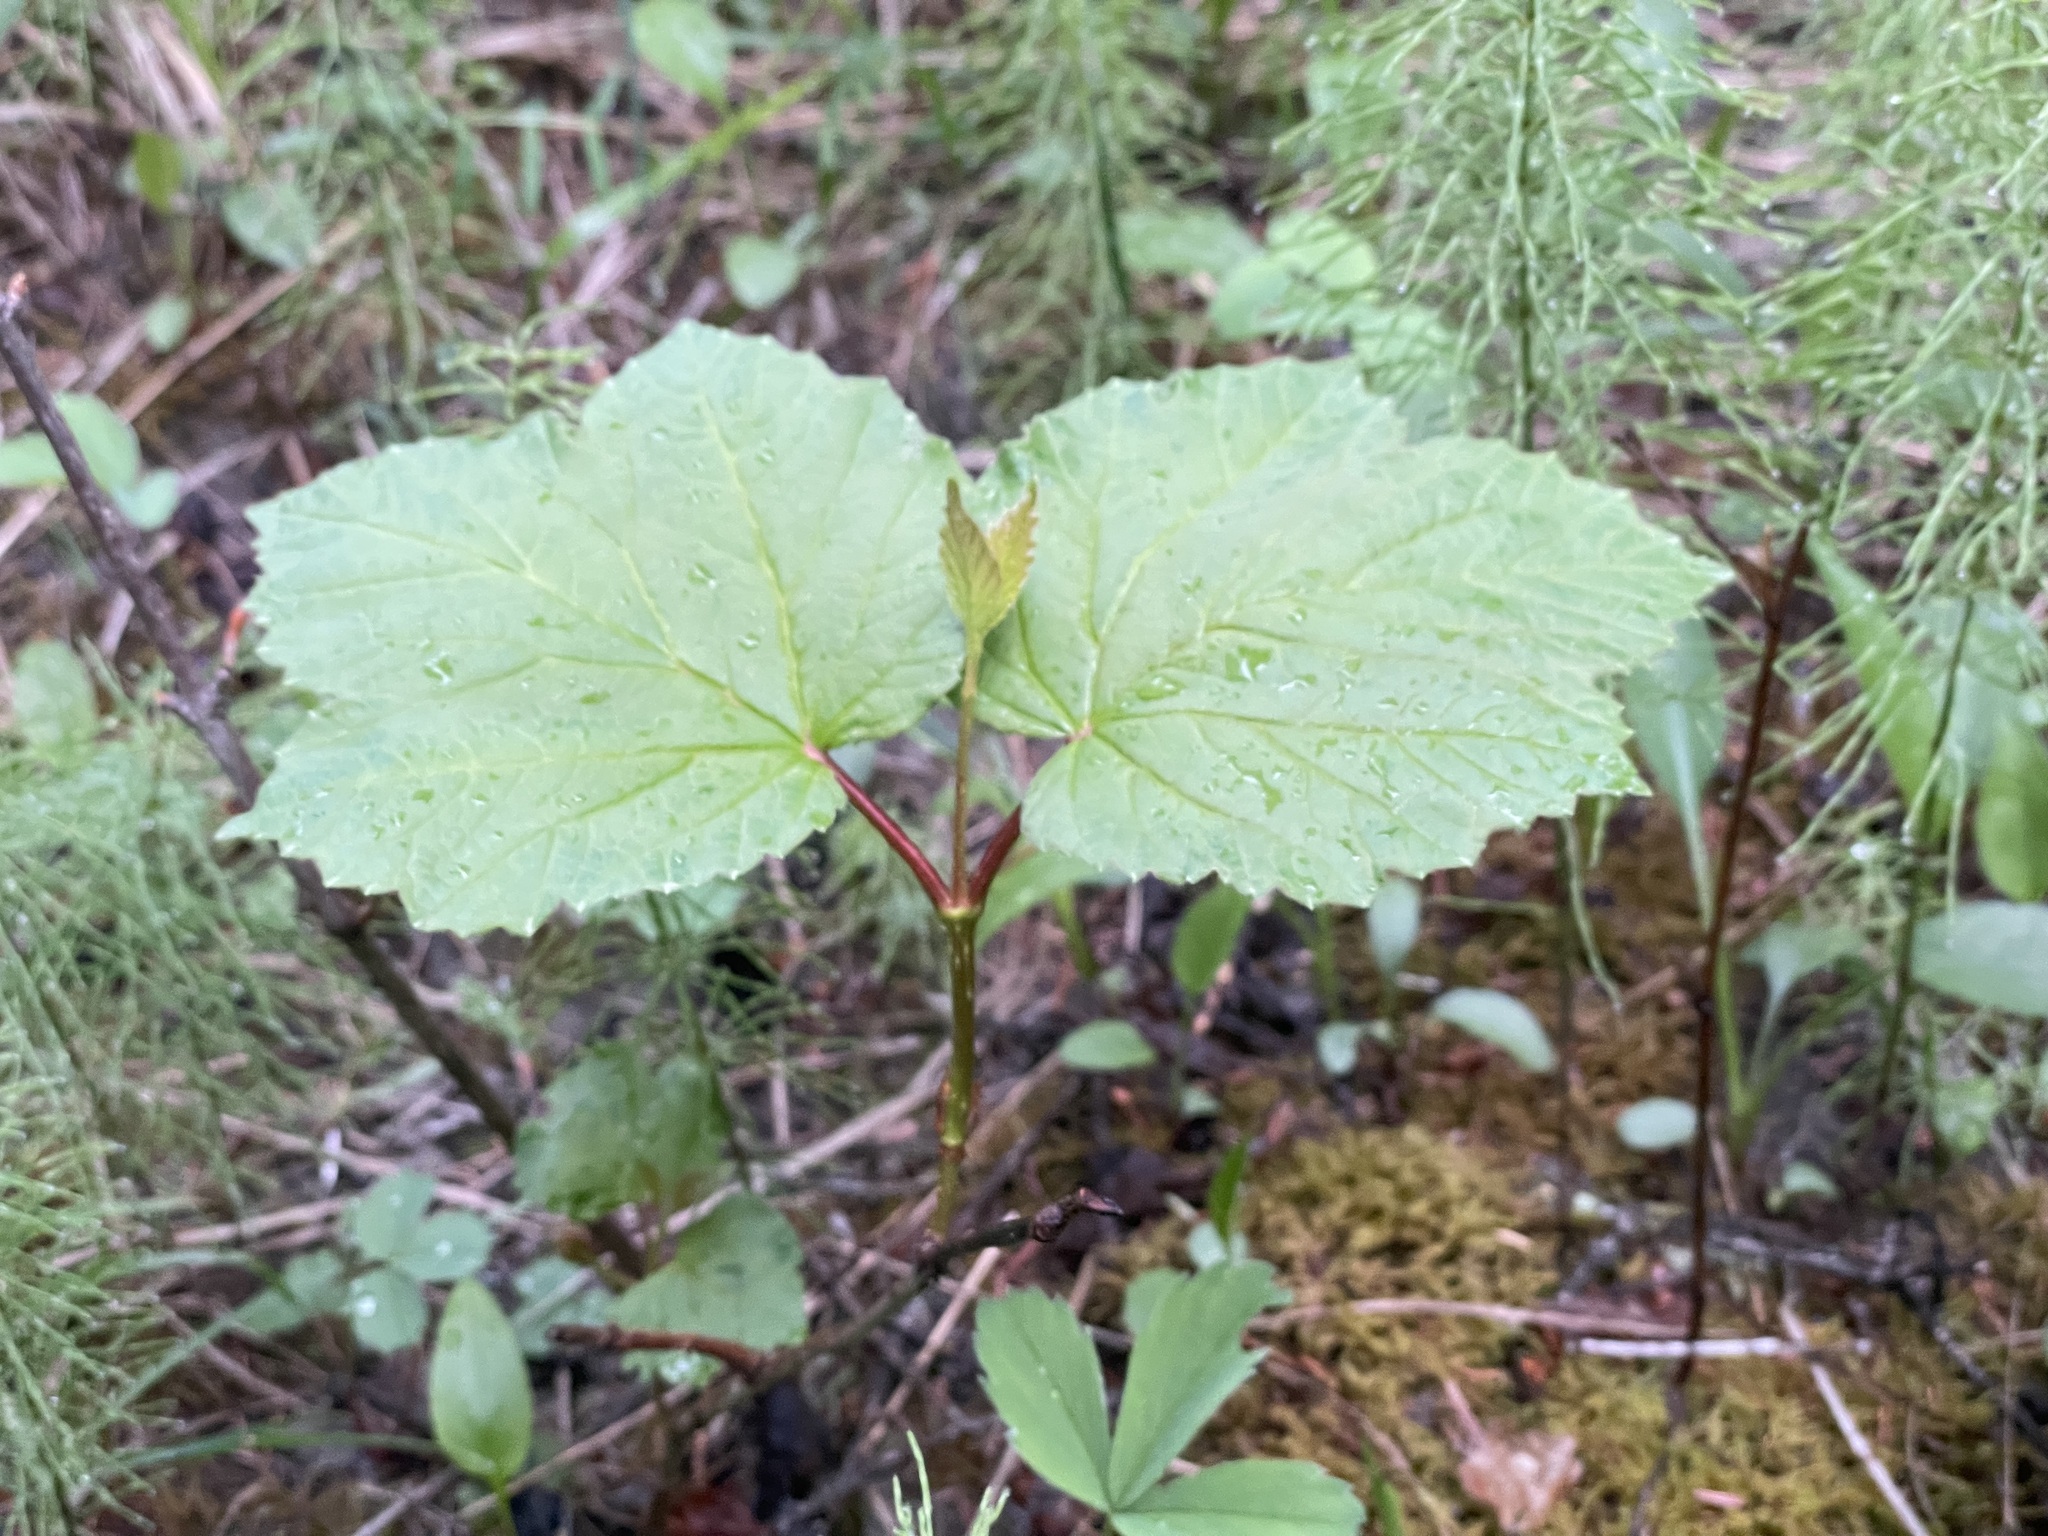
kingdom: Plantae
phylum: Tracheophyta
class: Magnoliopsida
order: Dipsacales
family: Viburnaceae
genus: Viburnum
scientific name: Viburnum edule
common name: Mooseberry
